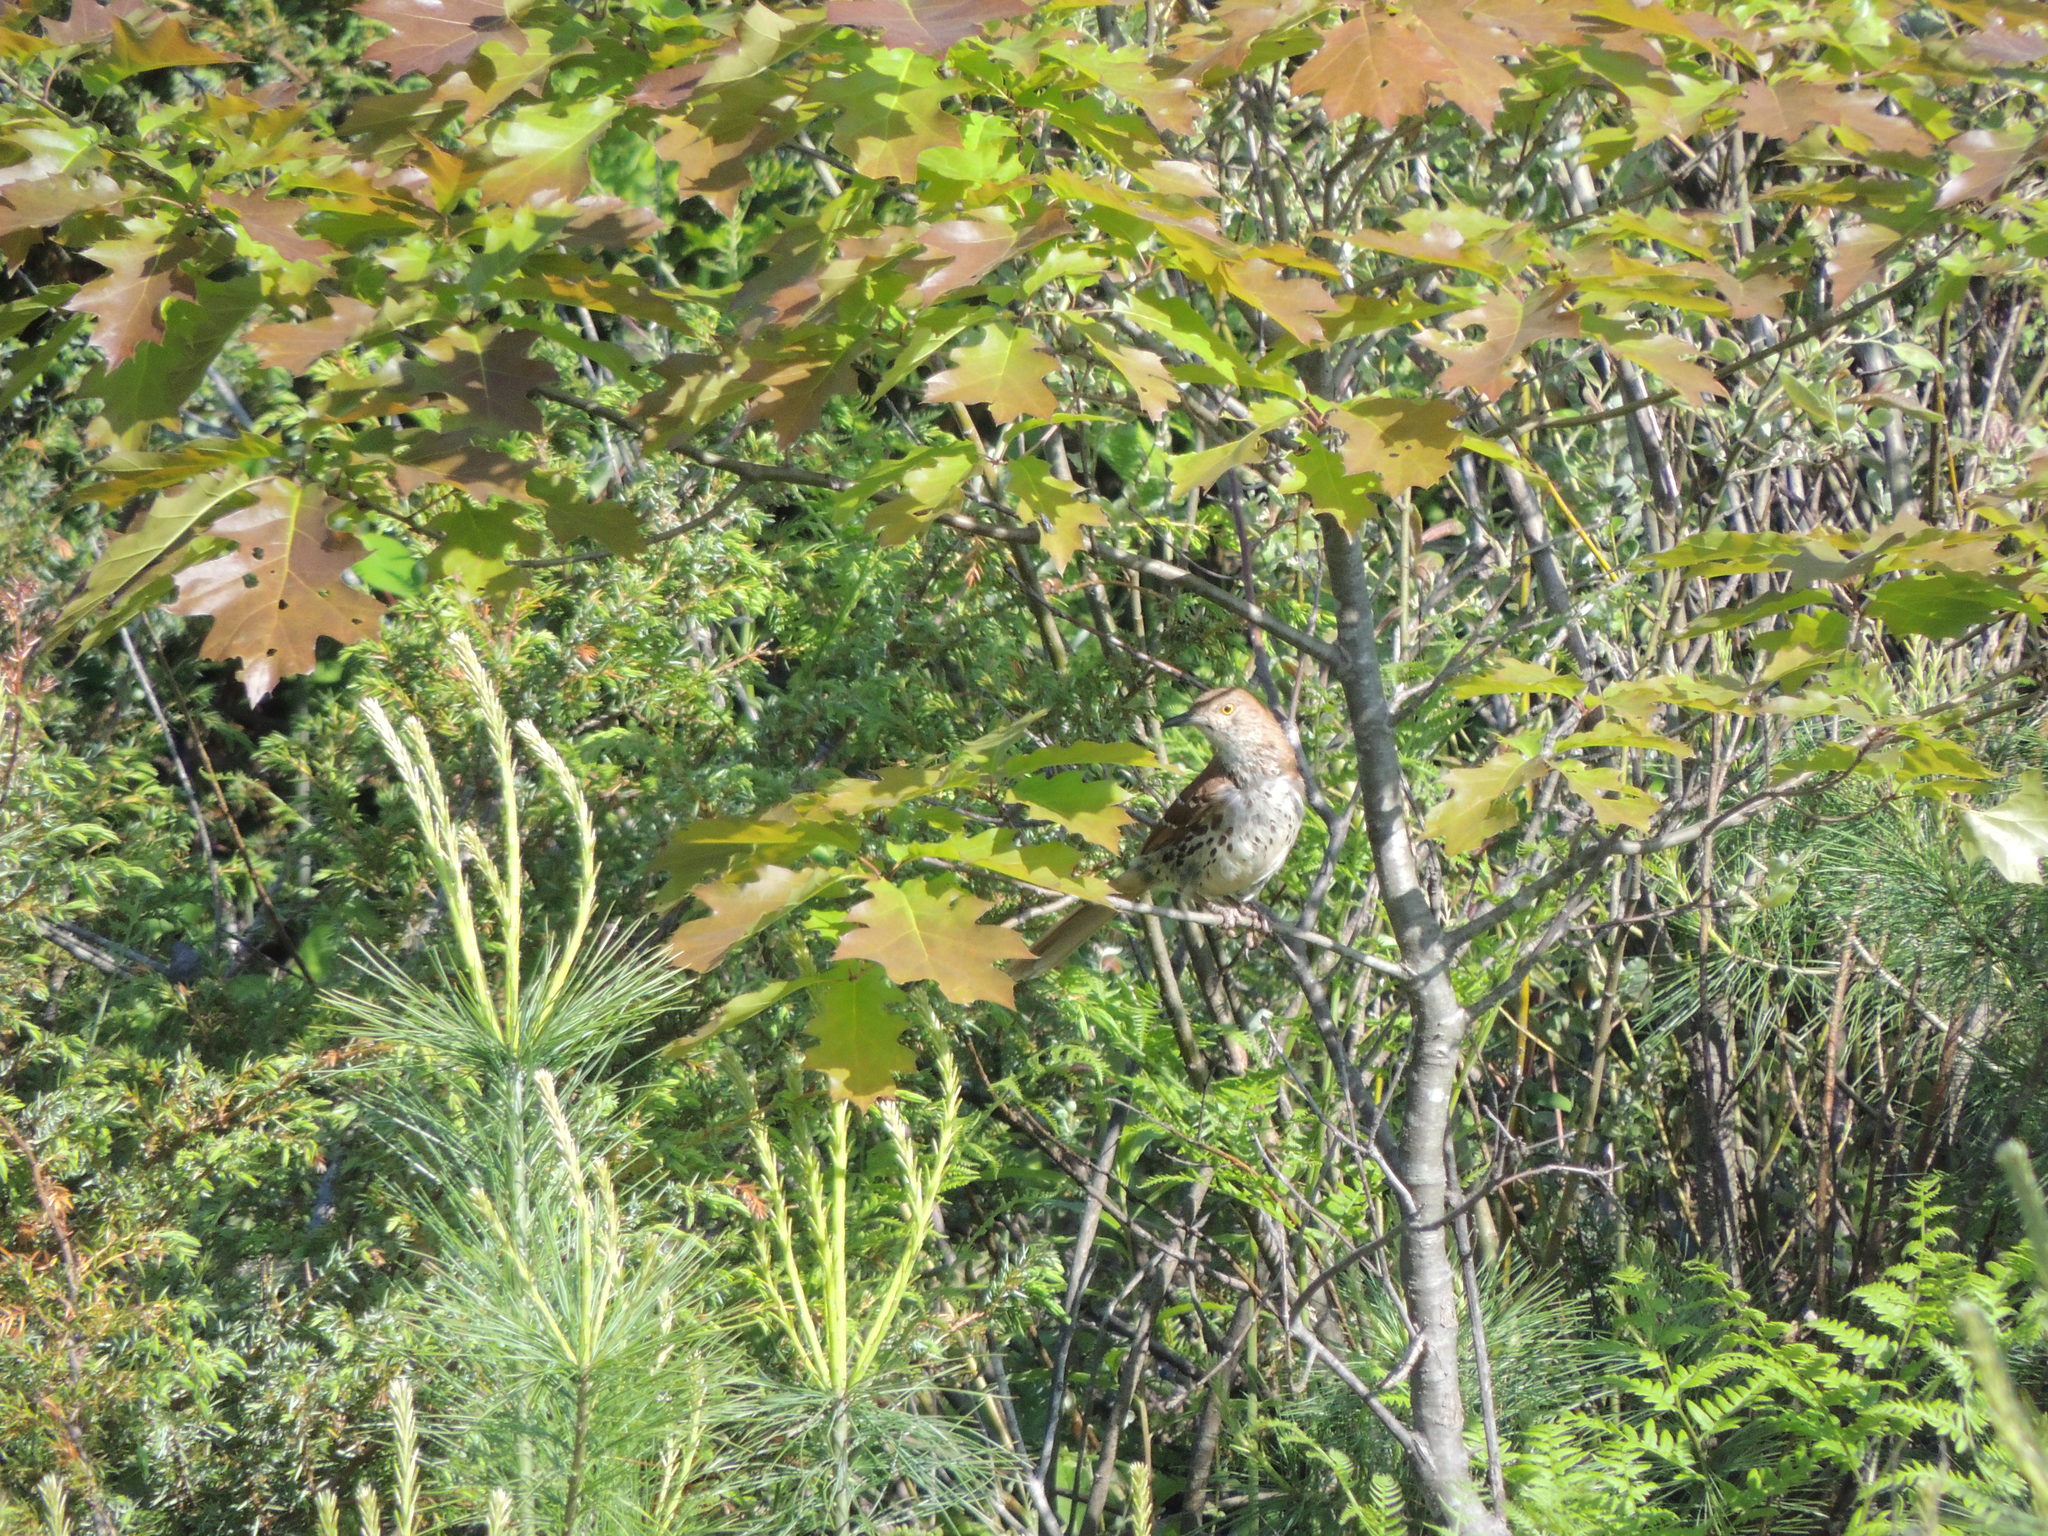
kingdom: Animalia
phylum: Chordata
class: Aves
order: Passeriformes
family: Mimidae
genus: Toxostoma
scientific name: Toxostoma rufum
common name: Brown thrasher
